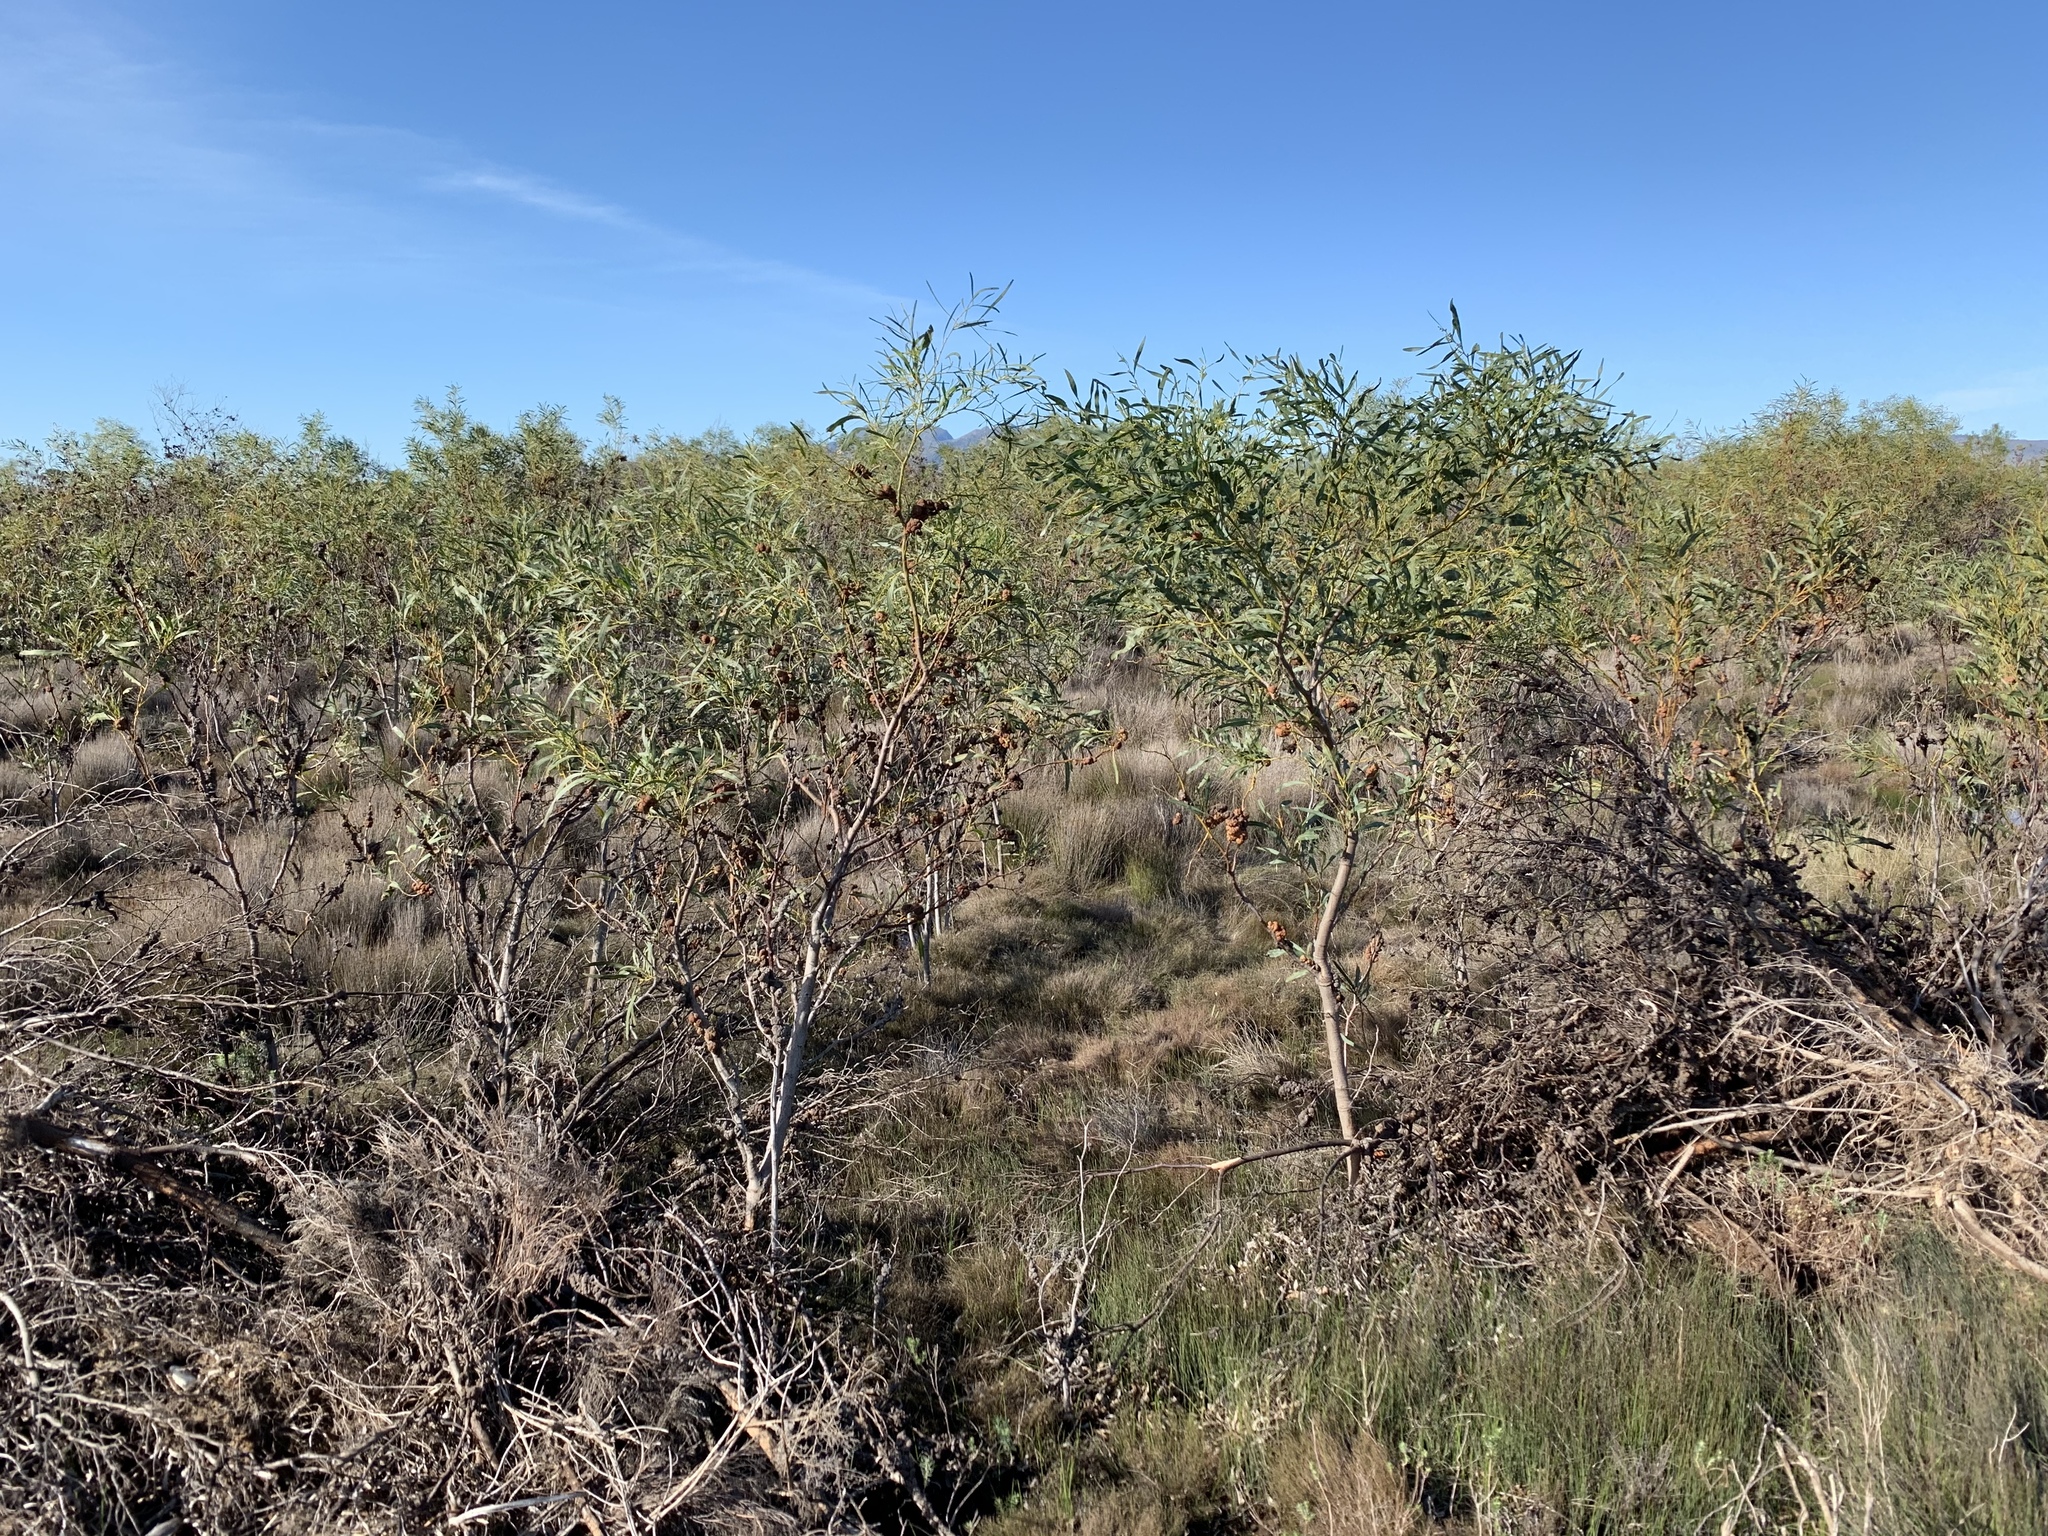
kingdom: Plantae
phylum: Tracheophyta
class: Magnoliopsida
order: Fabales
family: Fabaceae
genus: Acacia
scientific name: Acacia saligna
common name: Orange wattle
